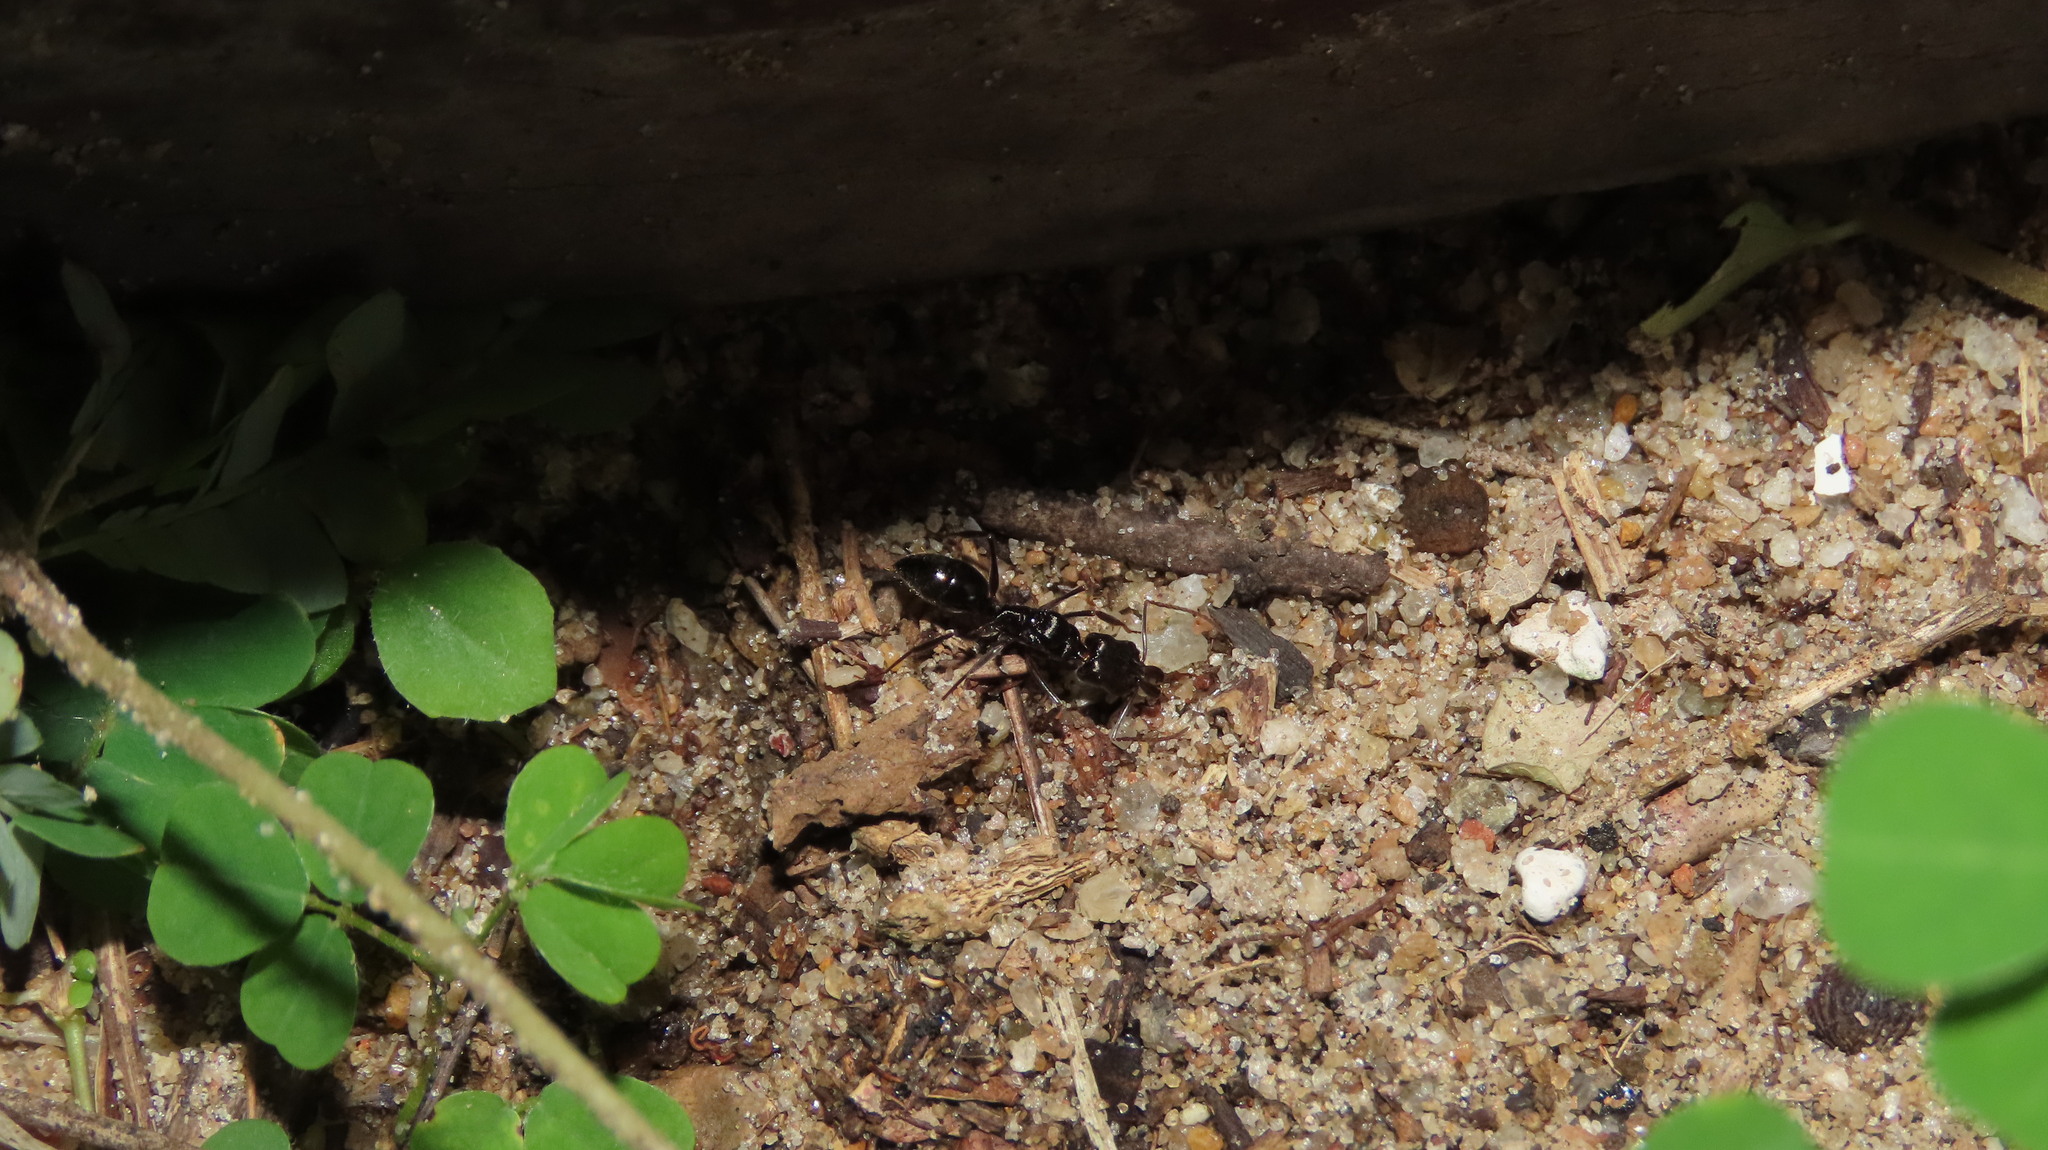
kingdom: Animalia
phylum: Arthropoda
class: Insecta
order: Hymenoptera
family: Formicidae
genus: Odontomachus
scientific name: Odontomachus simillimus
